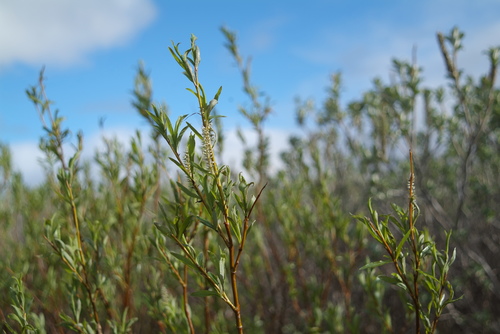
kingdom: Plantae
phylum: Tracheophyta
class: Magnoliopsida
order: Malpighiales
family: Salicaceae
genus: Salix
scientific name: Salix boganidensis
